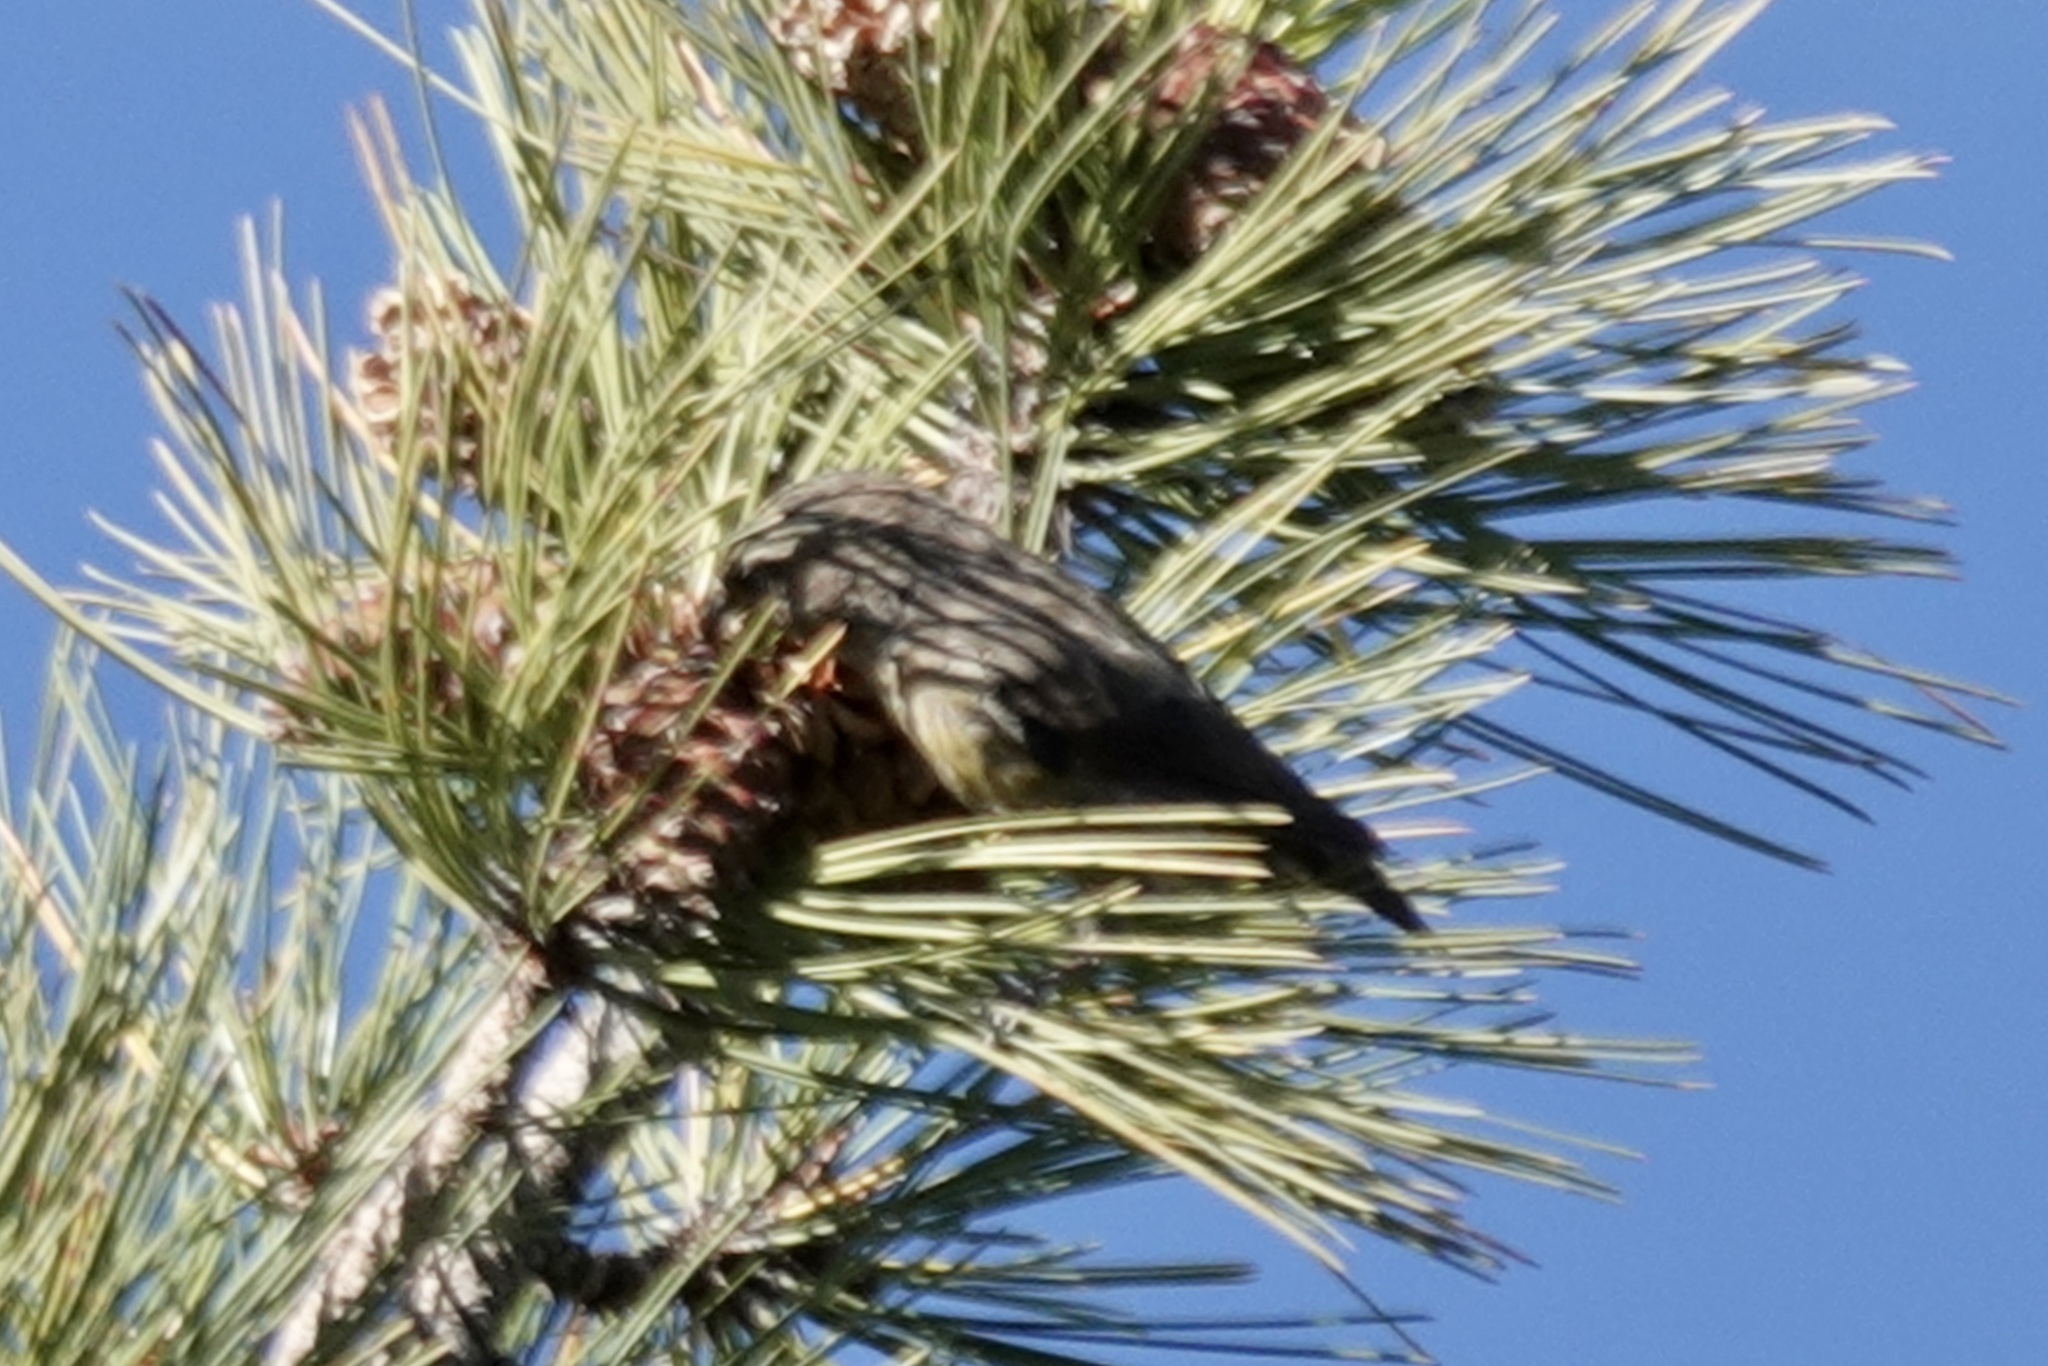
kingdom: Animalia
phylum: Chordata
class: Aves
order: Passeriformes
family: Fringillidae
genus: Loxia
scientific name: Loxia curvirostra
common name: Red crossbill
